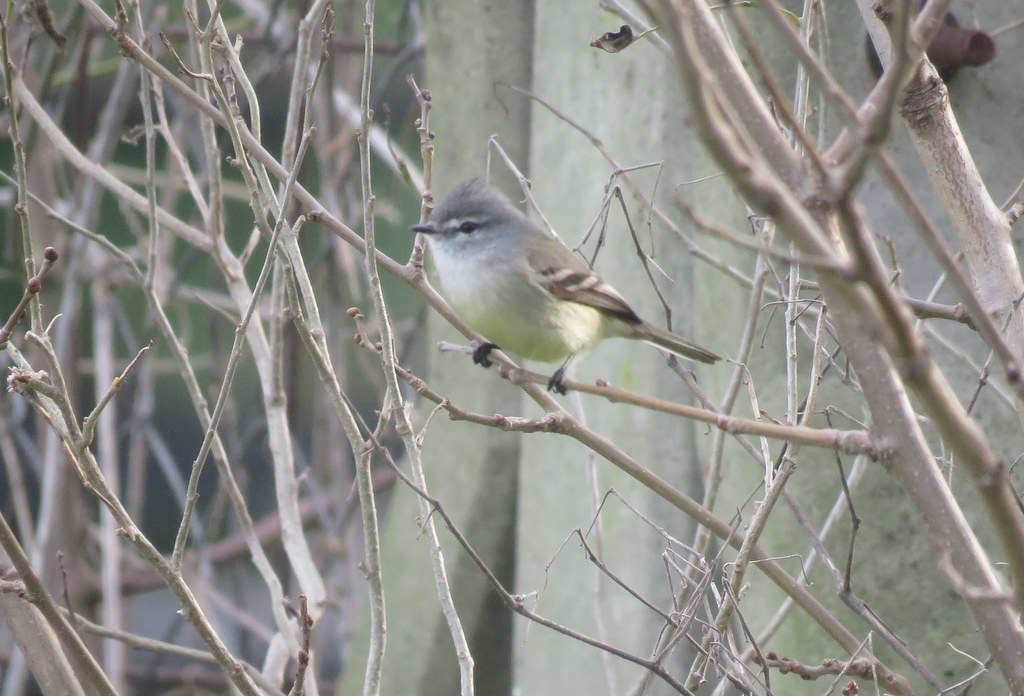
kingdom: Animalia
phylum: Chordata
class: Aves
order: Passeriformes
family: Tyrannidae
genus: Serpophaga
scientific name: Serpophaga griseicapilla
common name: Straneck's tyrannulet
